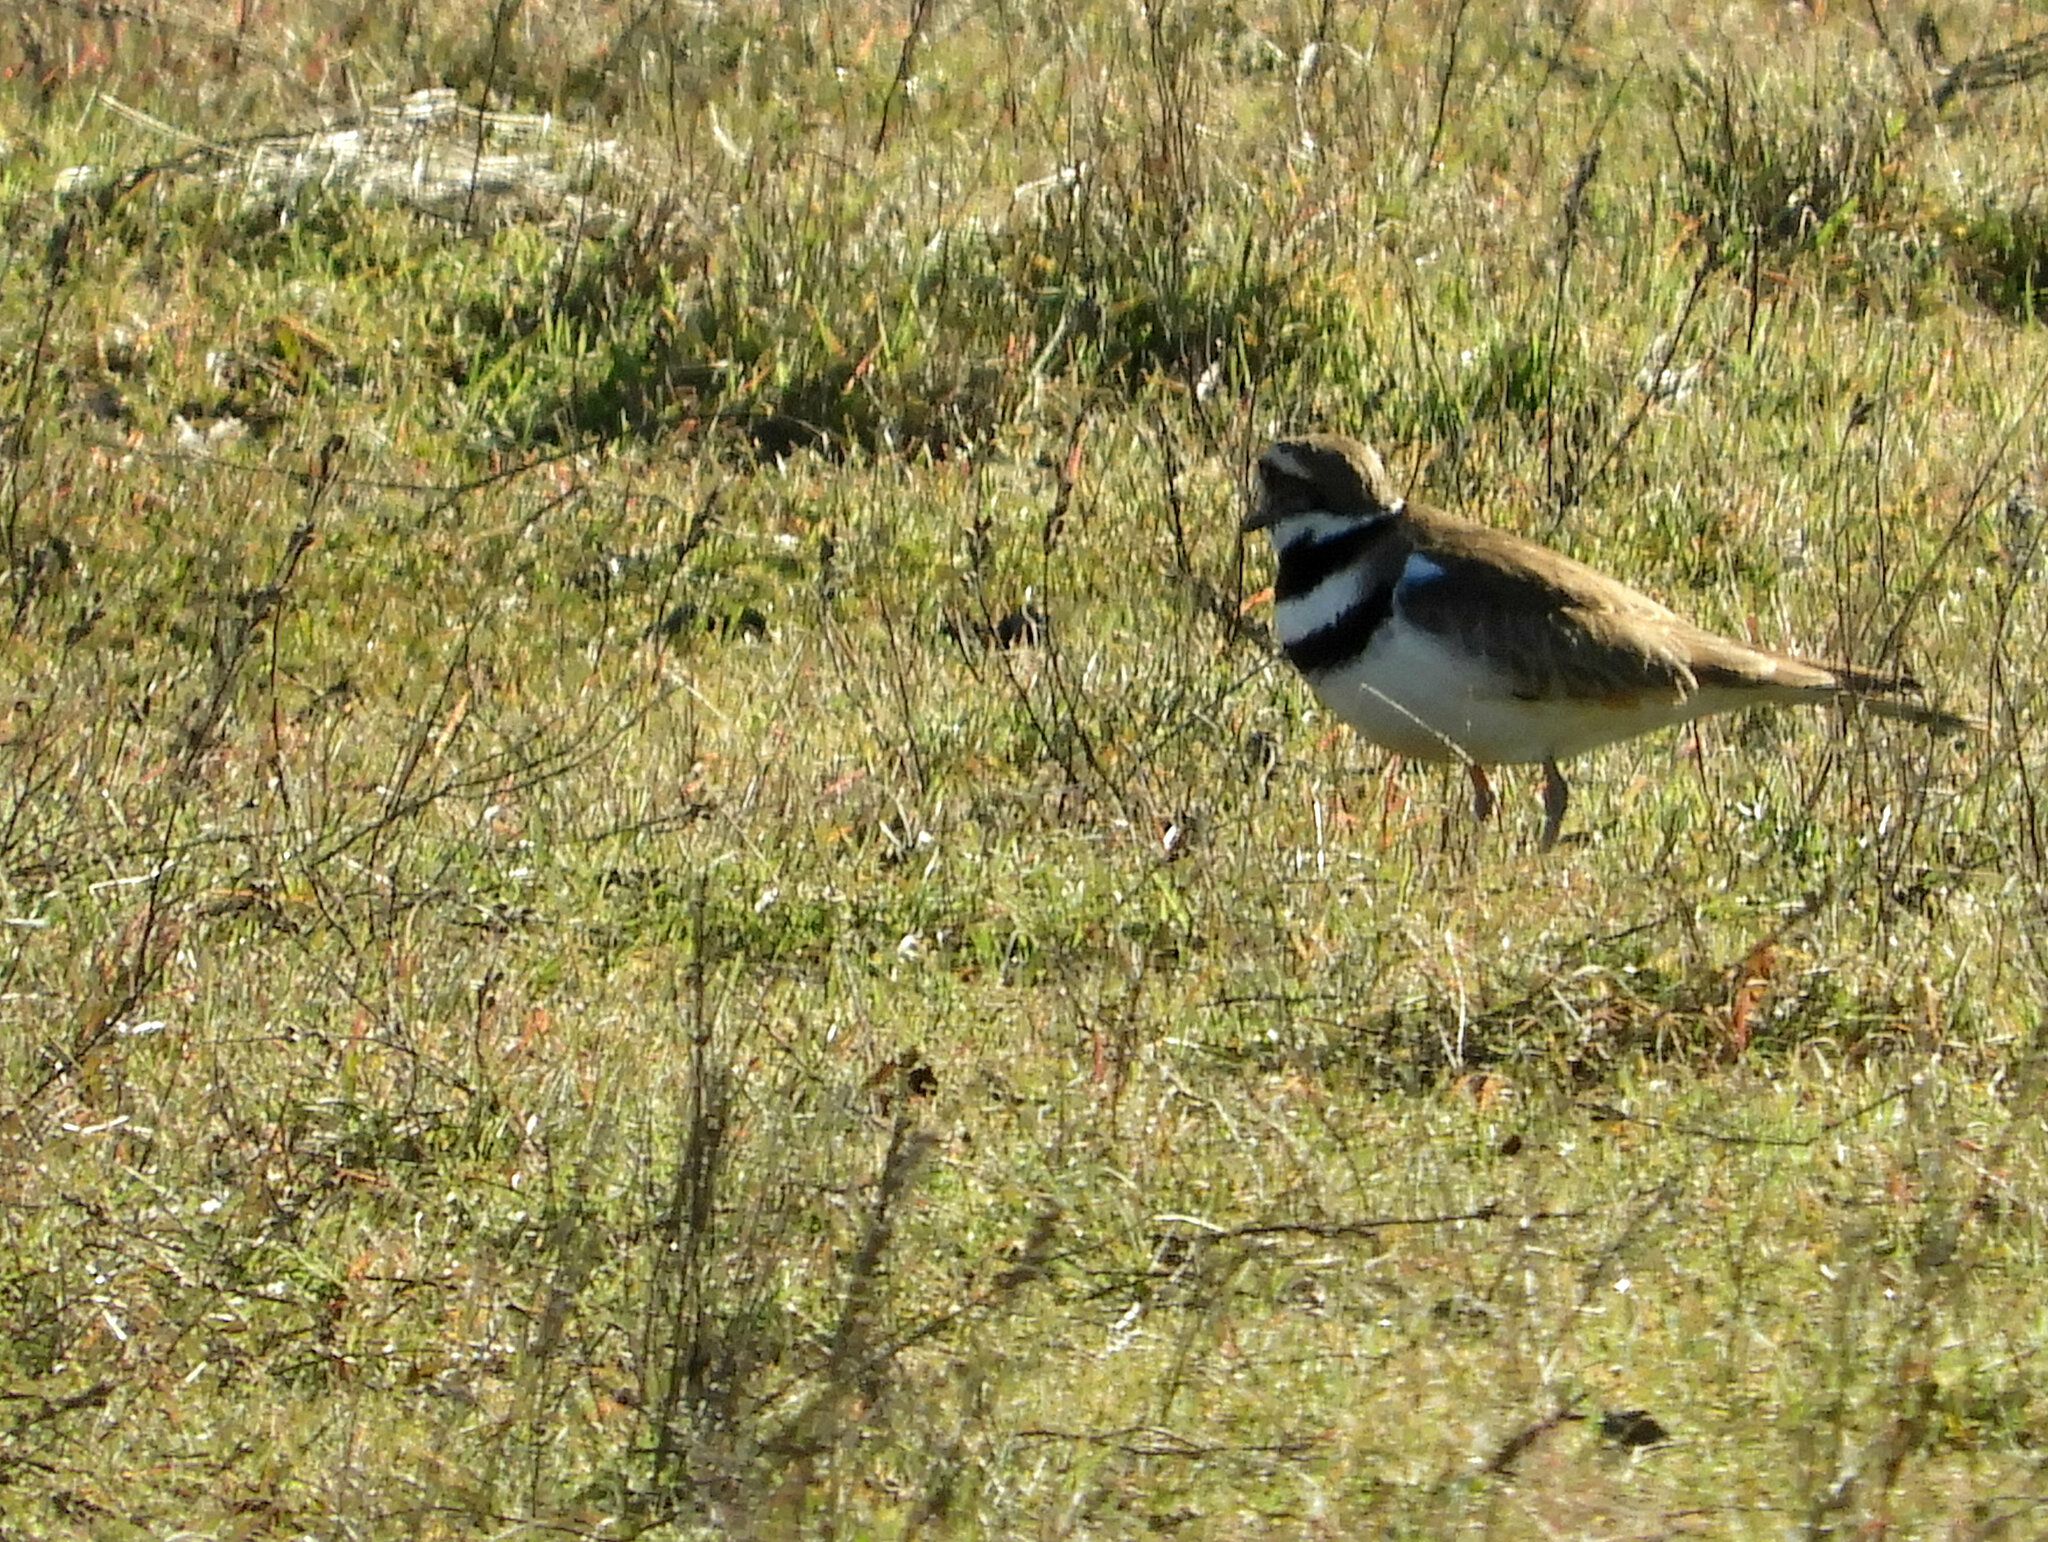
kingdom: Animalia
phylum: Chordata
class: Aves
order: Charadriiformes
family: Charadriidae
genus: Charadrius
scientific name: Charadrius vociferus
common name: Killdeer
